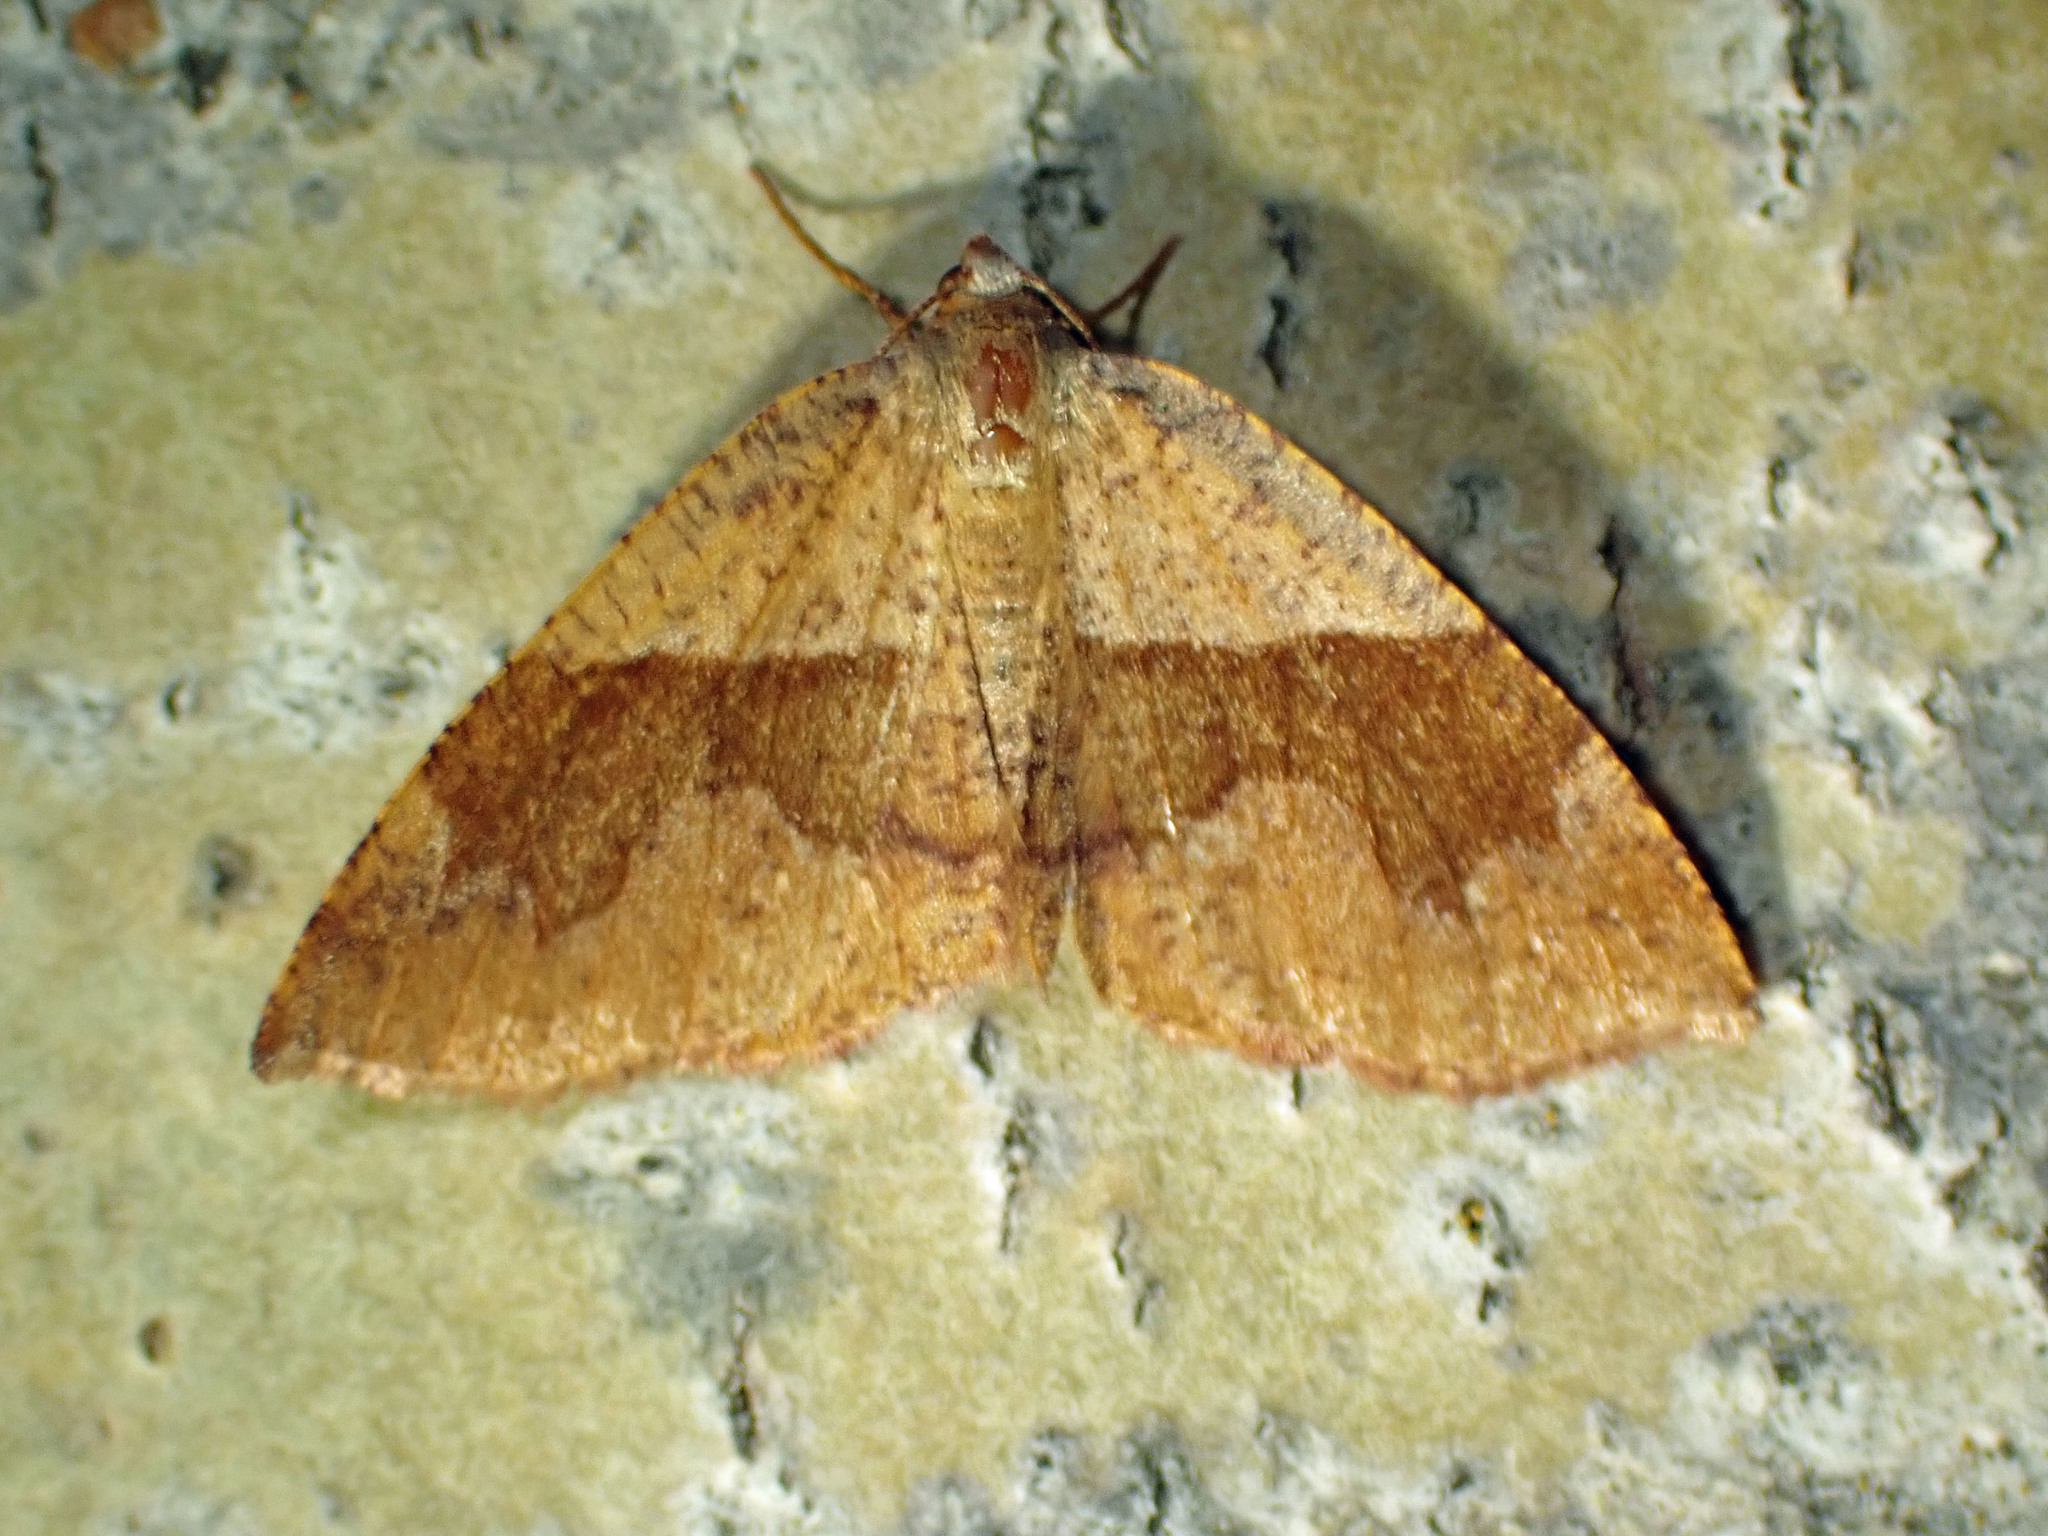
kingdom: Animalia
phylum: Arthropoda
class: Insecta
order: Lepidoptera
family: Geometridae
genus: Plagodis
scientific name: Plagodis pulveraria
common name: Barred umber
